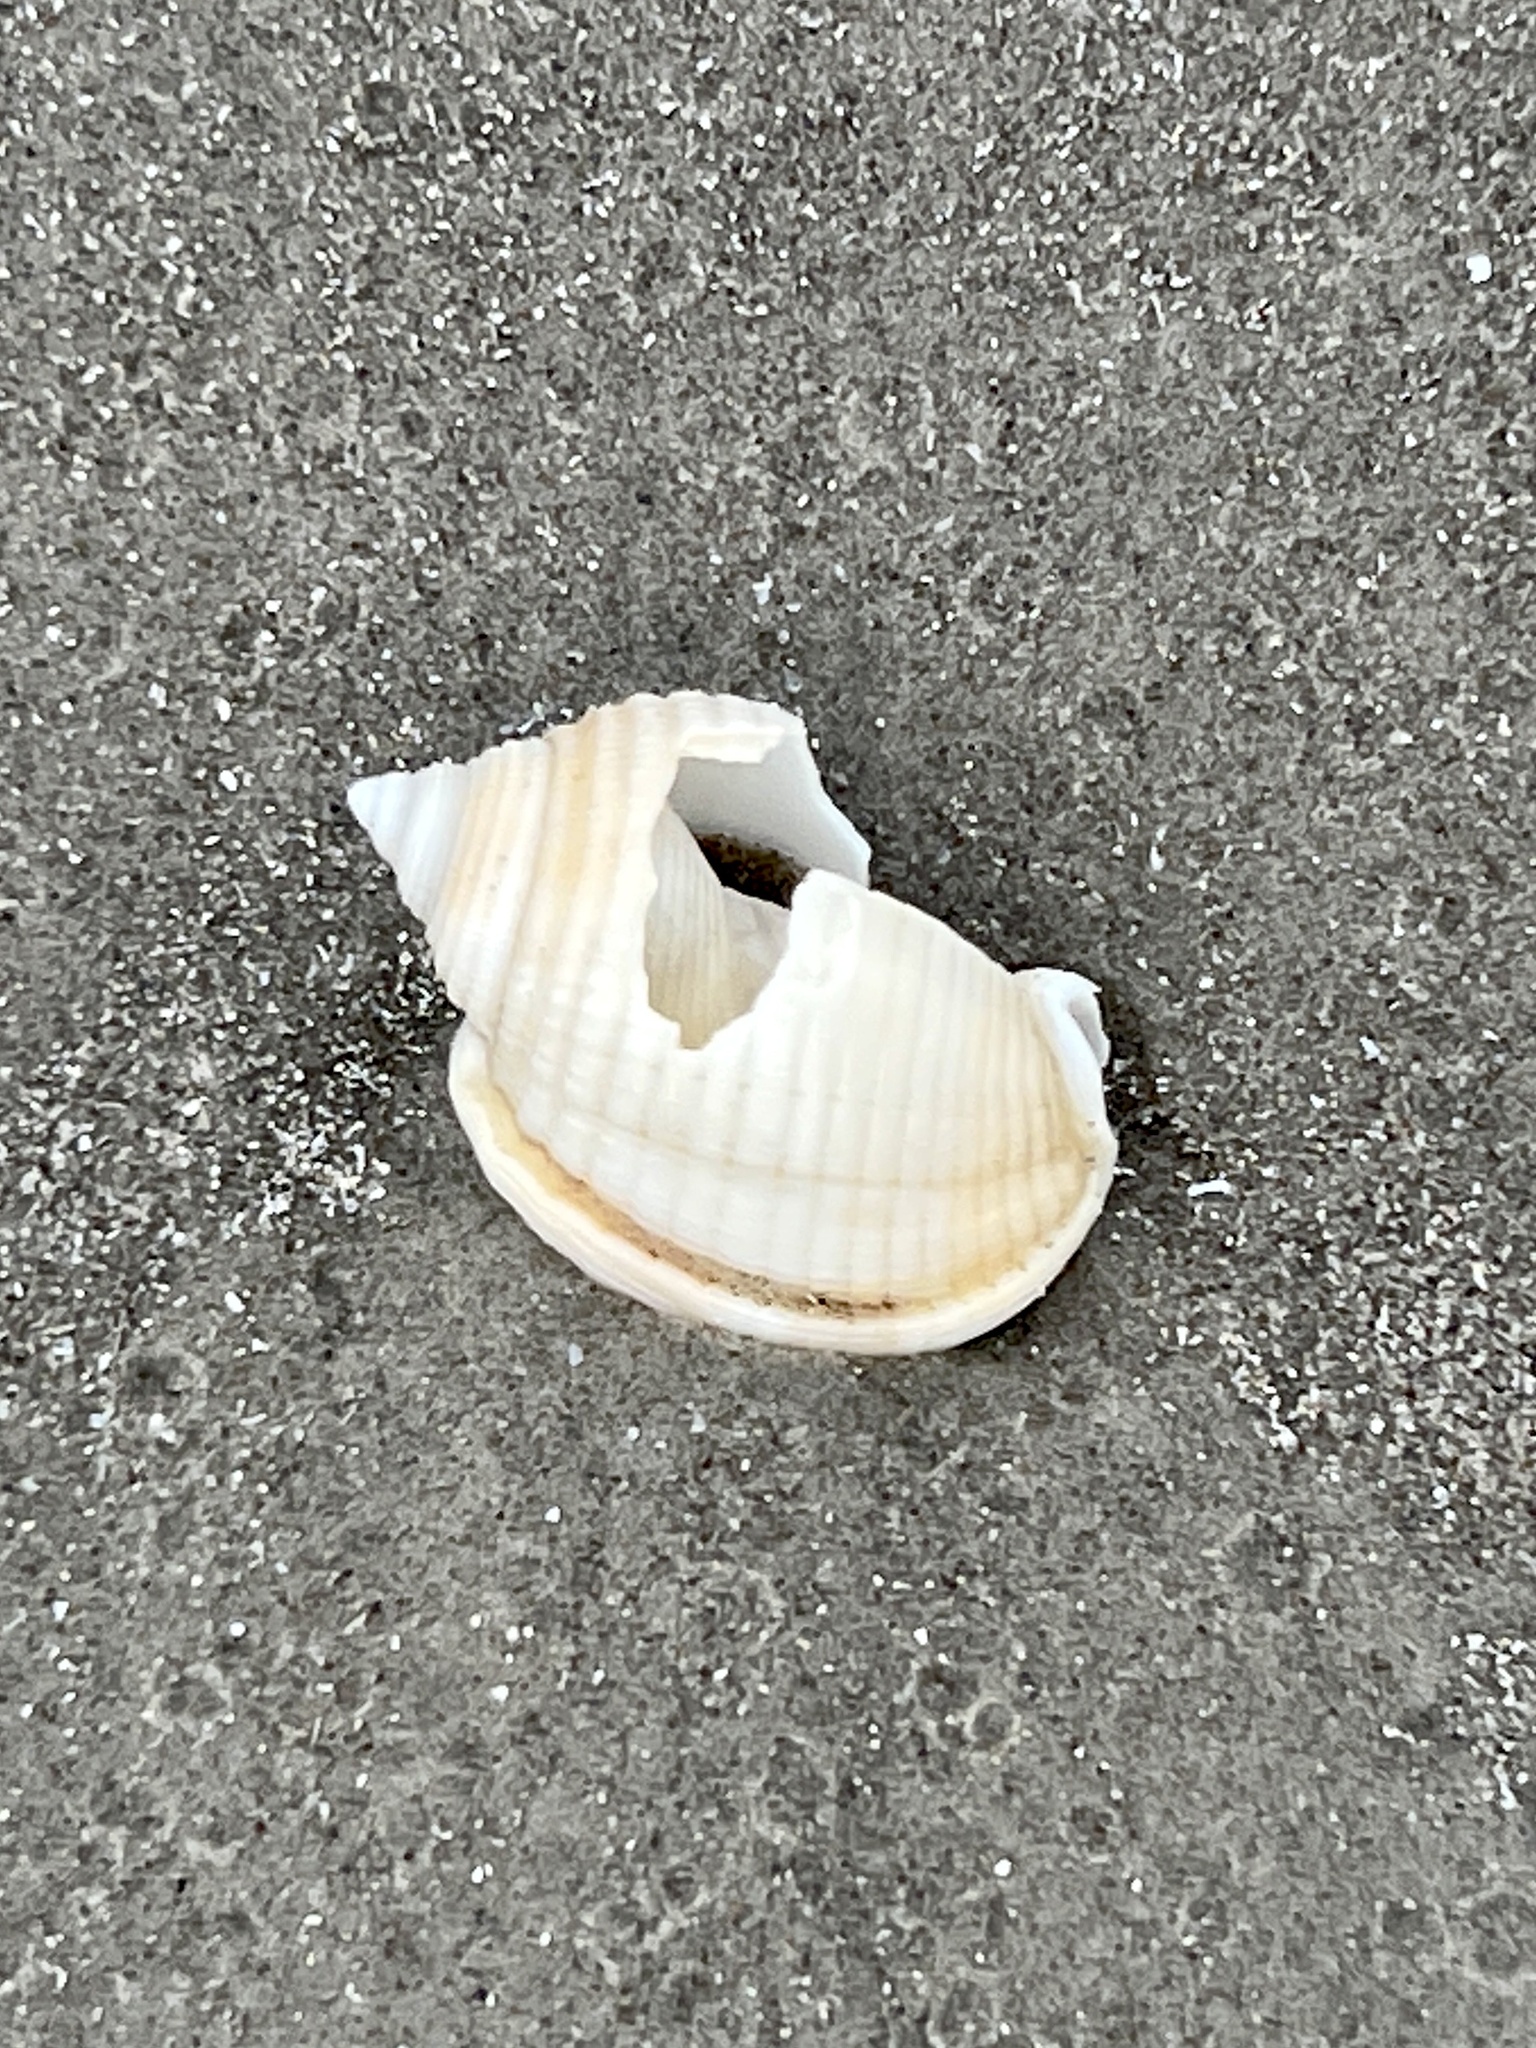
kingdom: Animalia
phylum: Mollusca
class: Gastropoda
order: Littorinimorpha
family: Cassidae
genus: Semicassis
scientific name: Semicassis granulata
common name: Scotch bonnet
